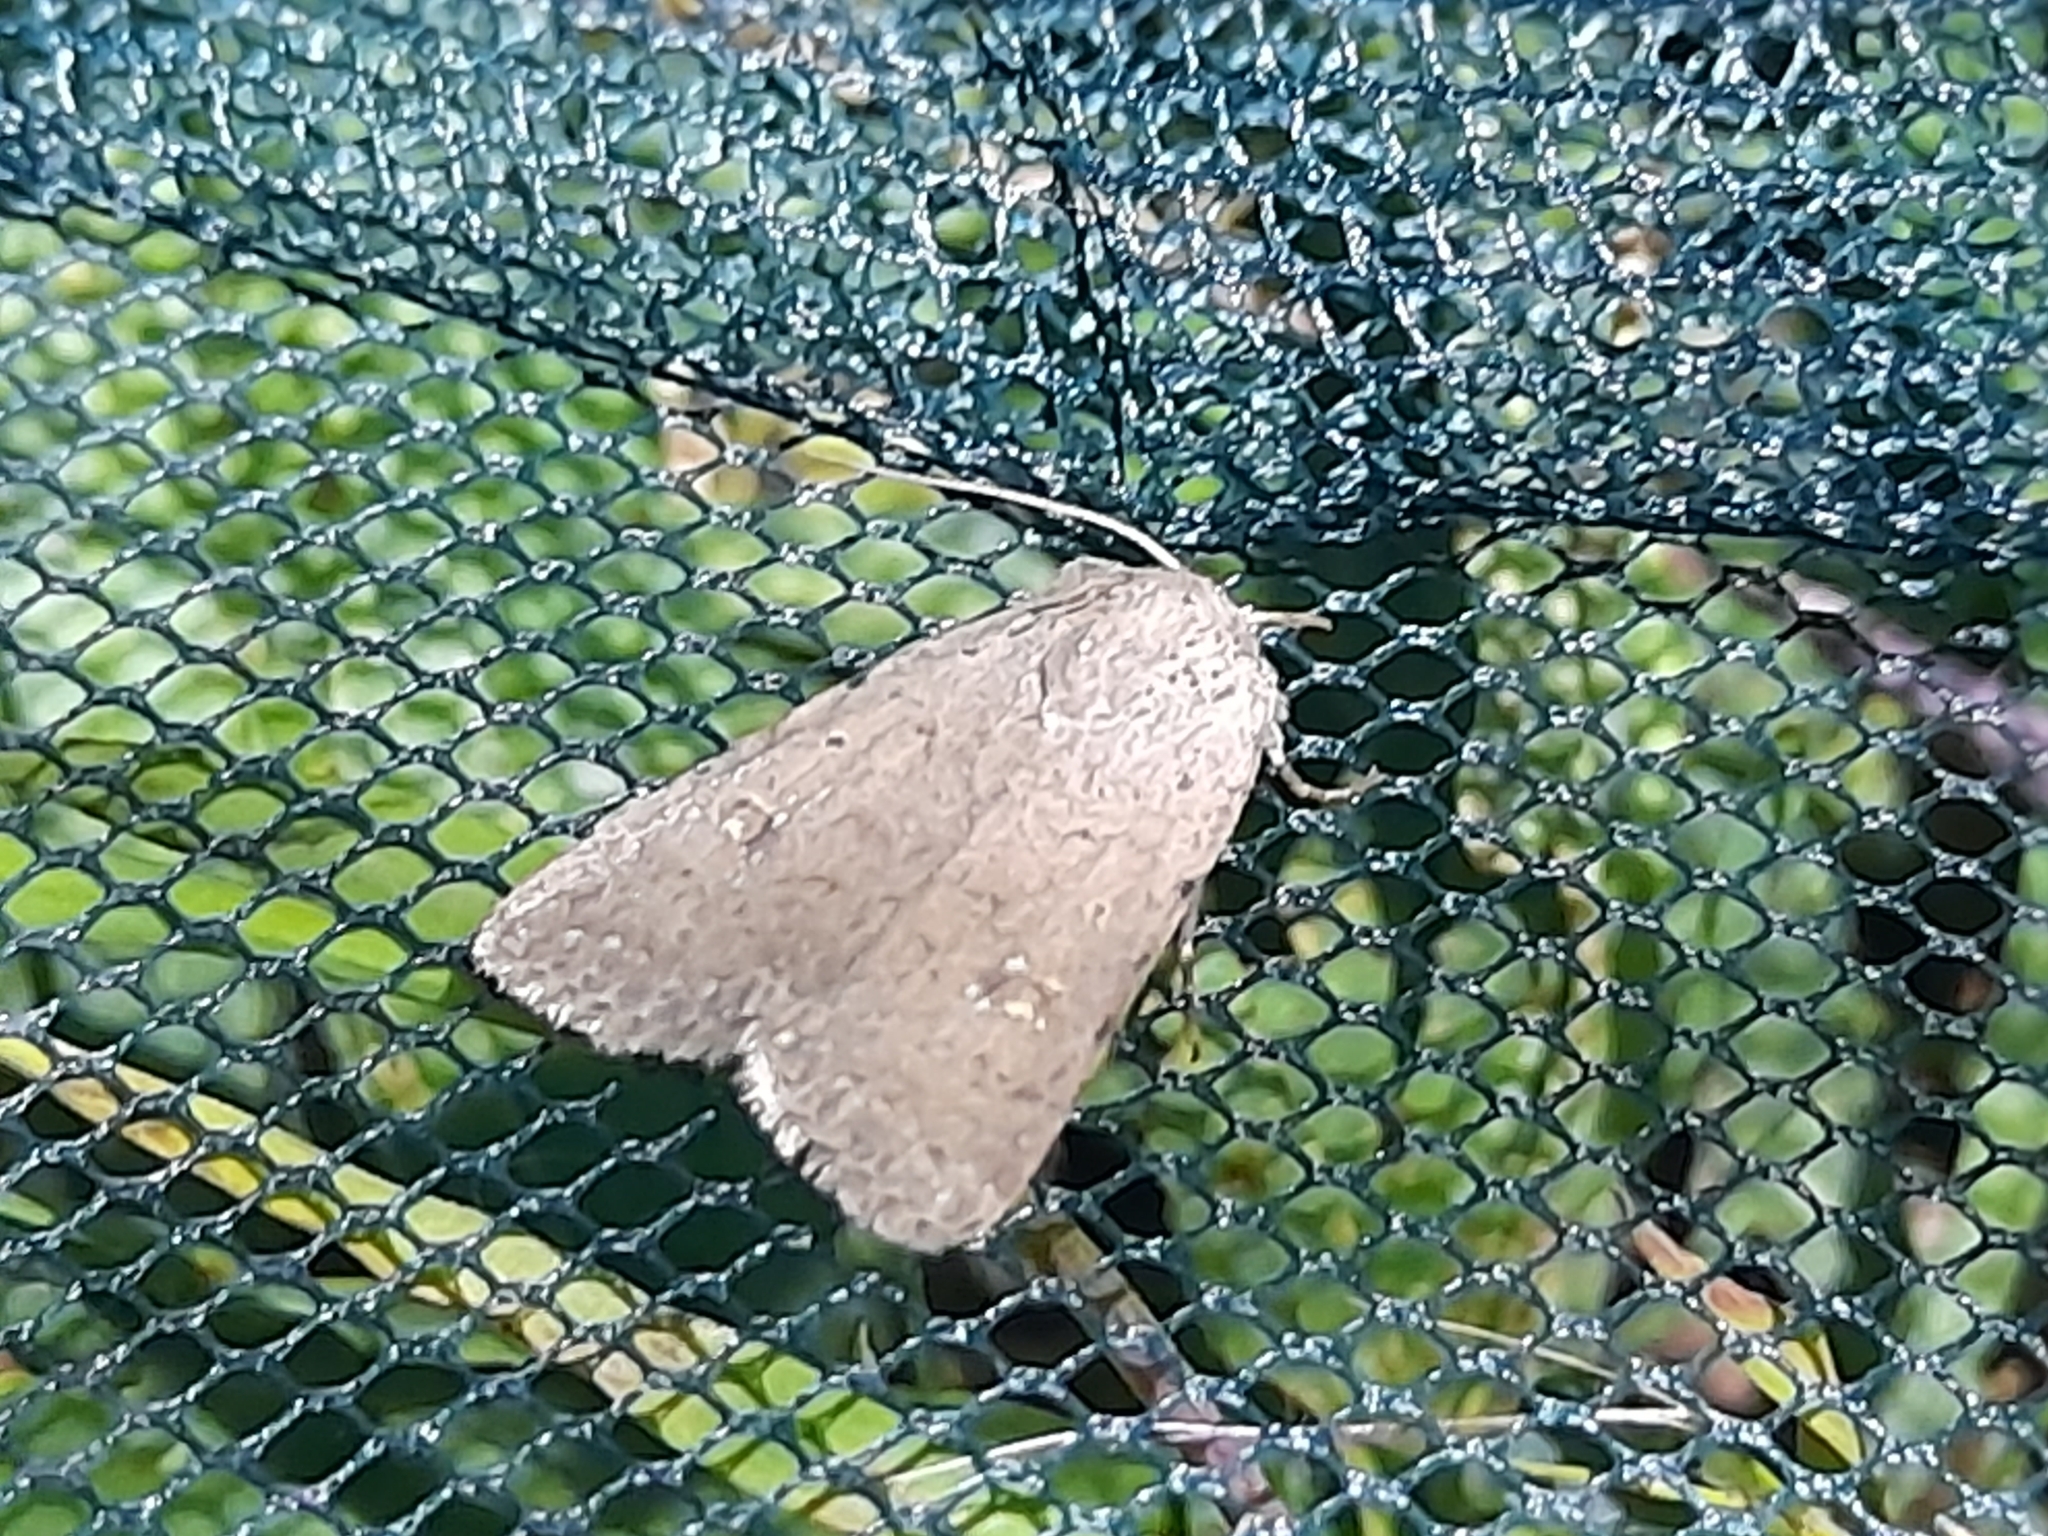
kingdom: Animalia
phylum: Arthropoda
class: Insecta
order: Lepidoptera
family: Noctuidae
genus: Caradrina
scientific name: Caradrina clavipalpis
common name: Pale mottled willow
